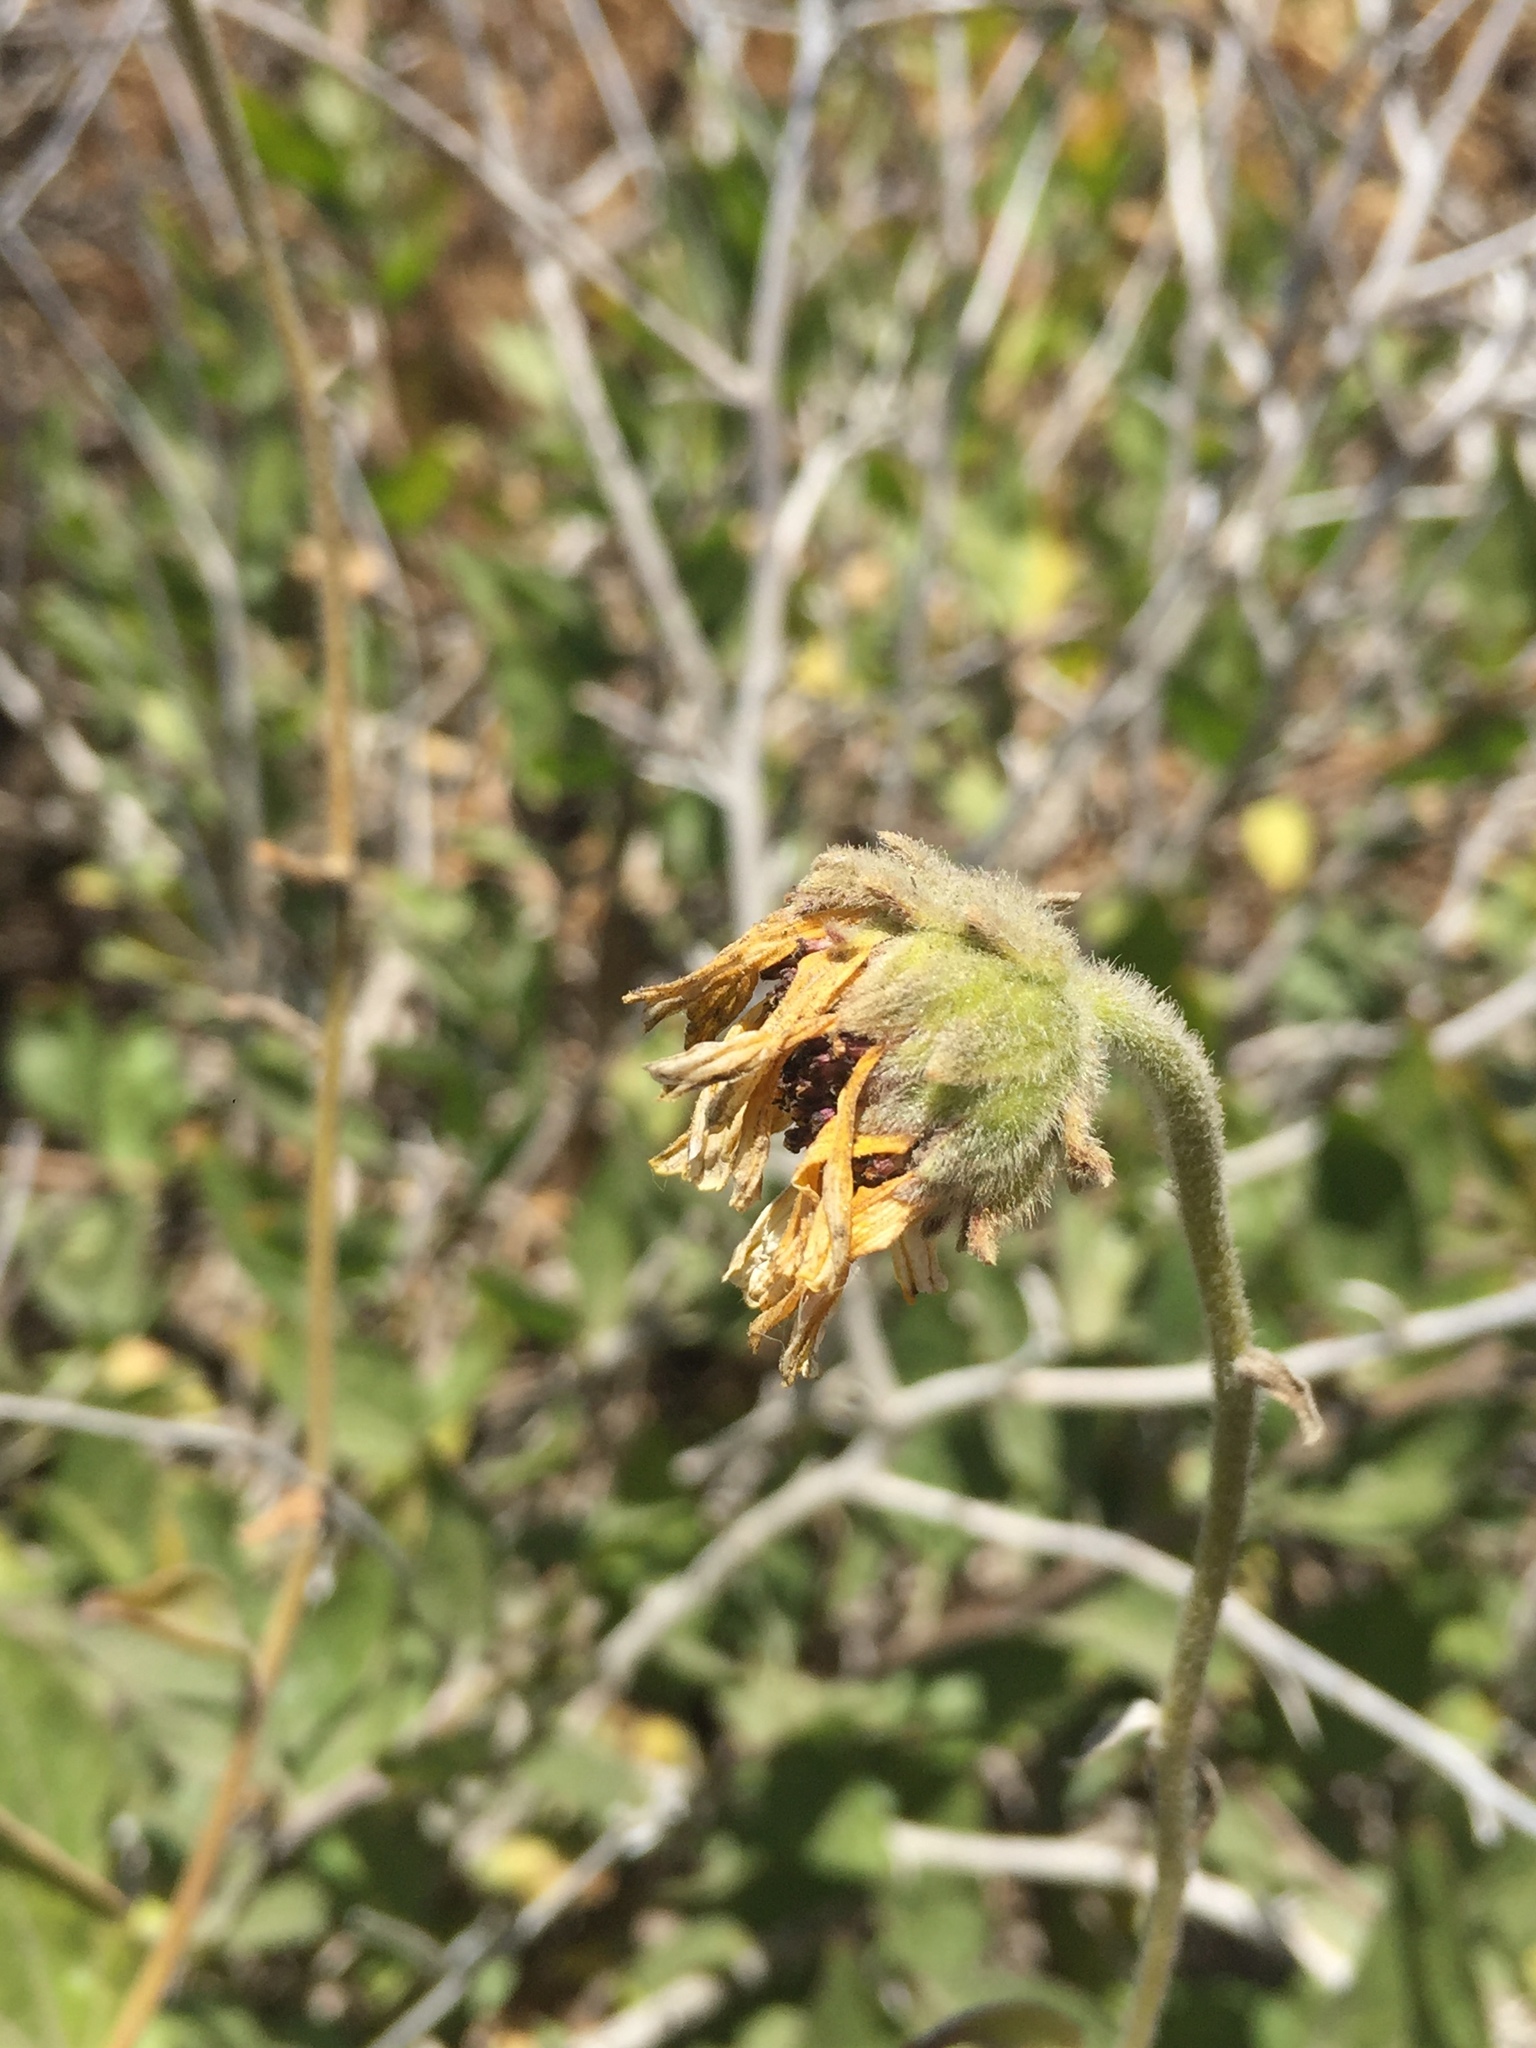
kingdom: Plantae
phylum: Tracheophyta
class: Magnoliopsida
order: Asterales
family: Asteraceae
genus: Encelia
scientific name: Encelia californica
